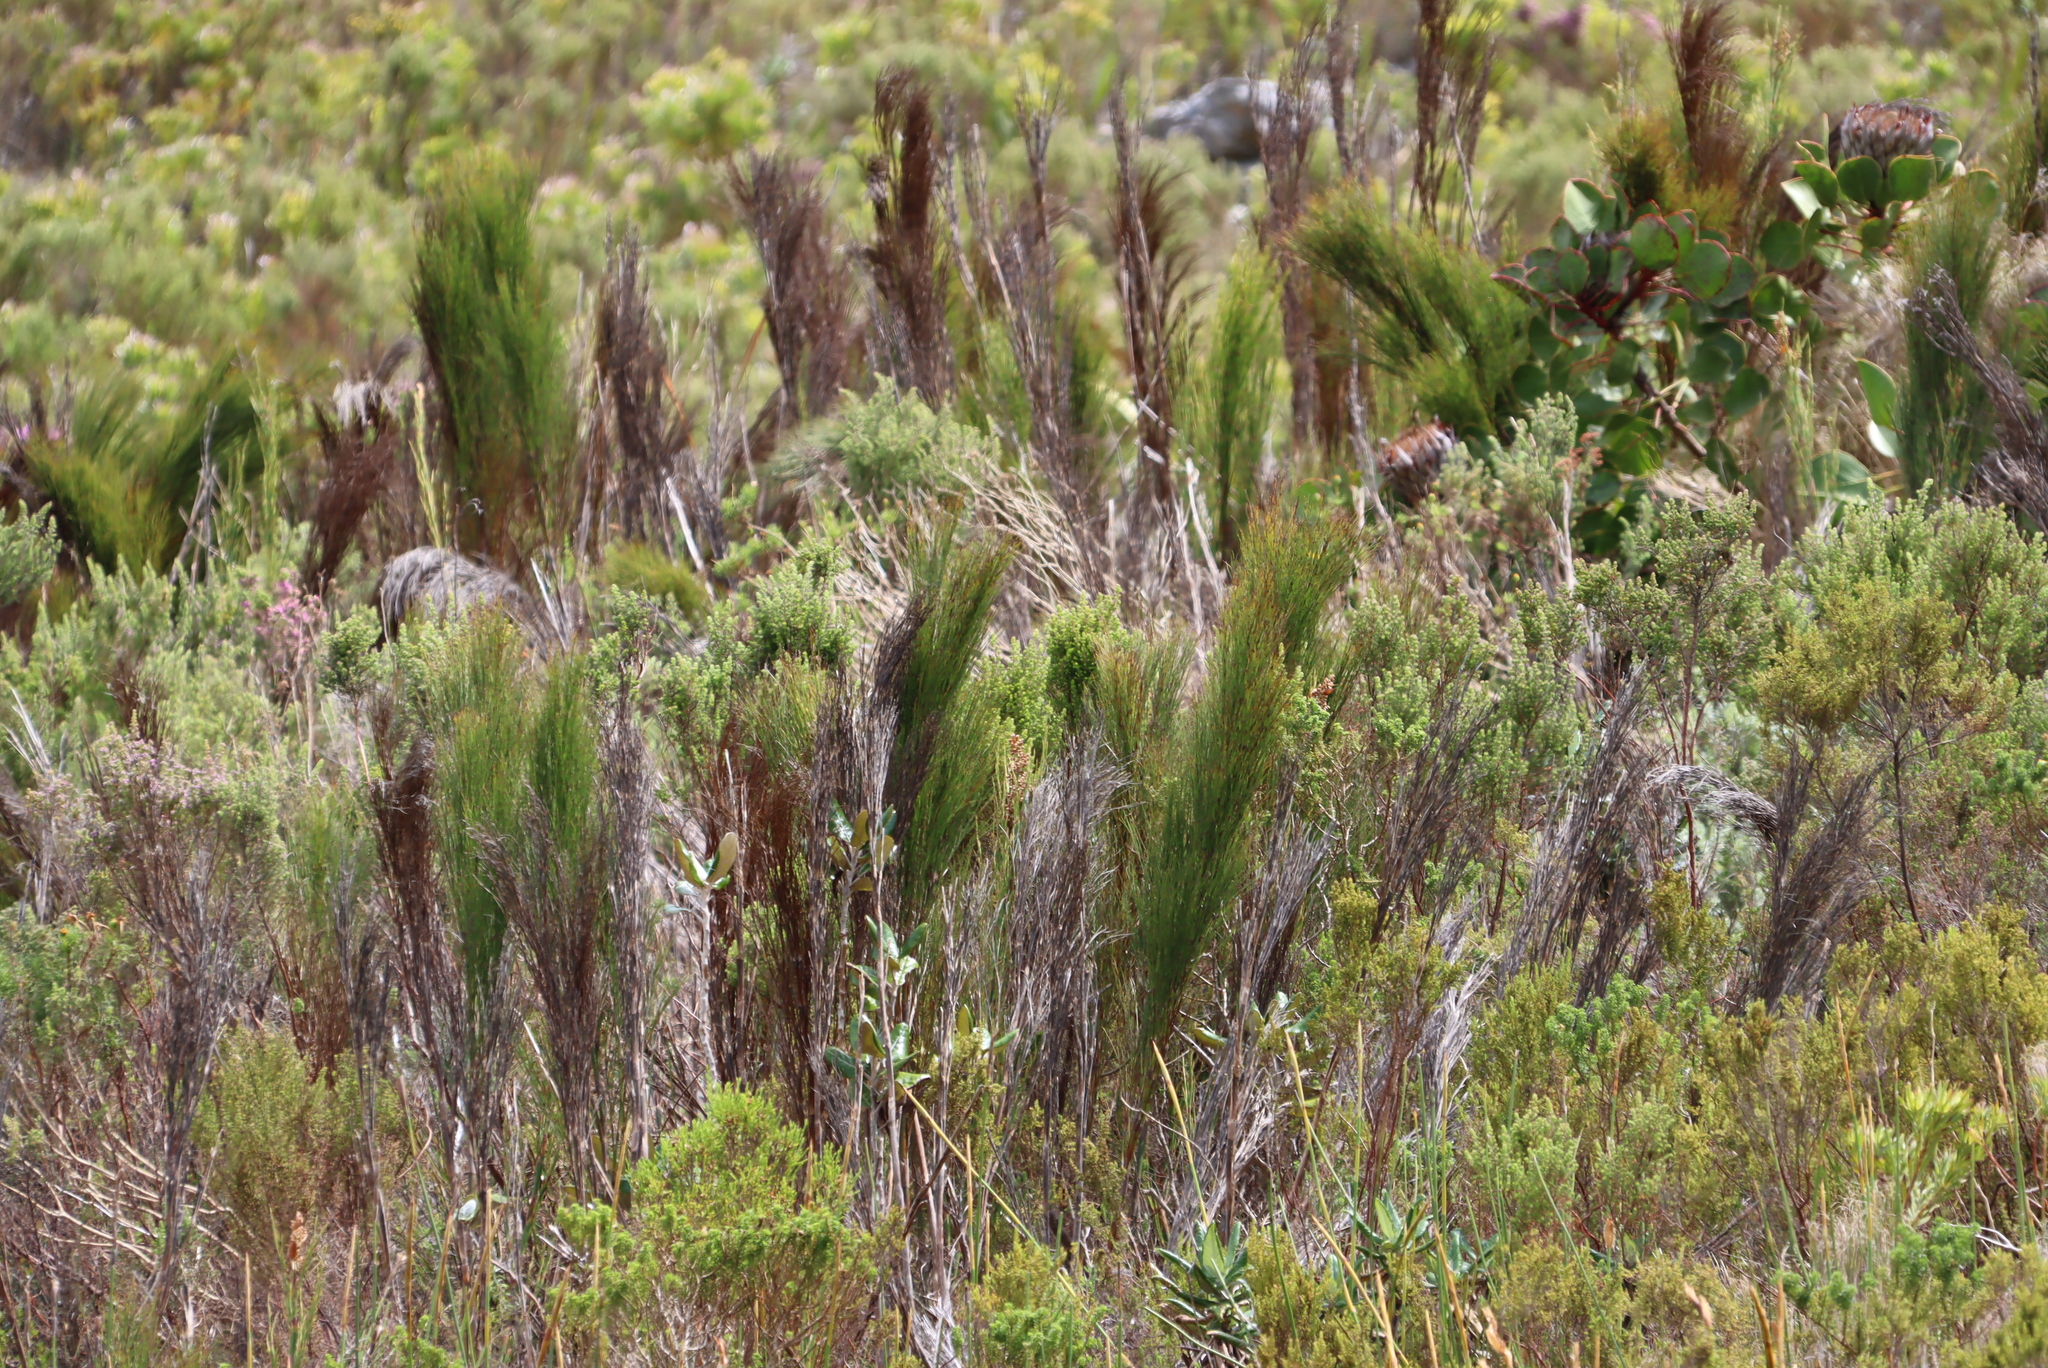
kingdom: Plantae
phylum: Tracheophyta
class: Liliopsida
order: Poales
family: Restionaceae
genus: Cannomois
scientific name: Cannomois virgata
